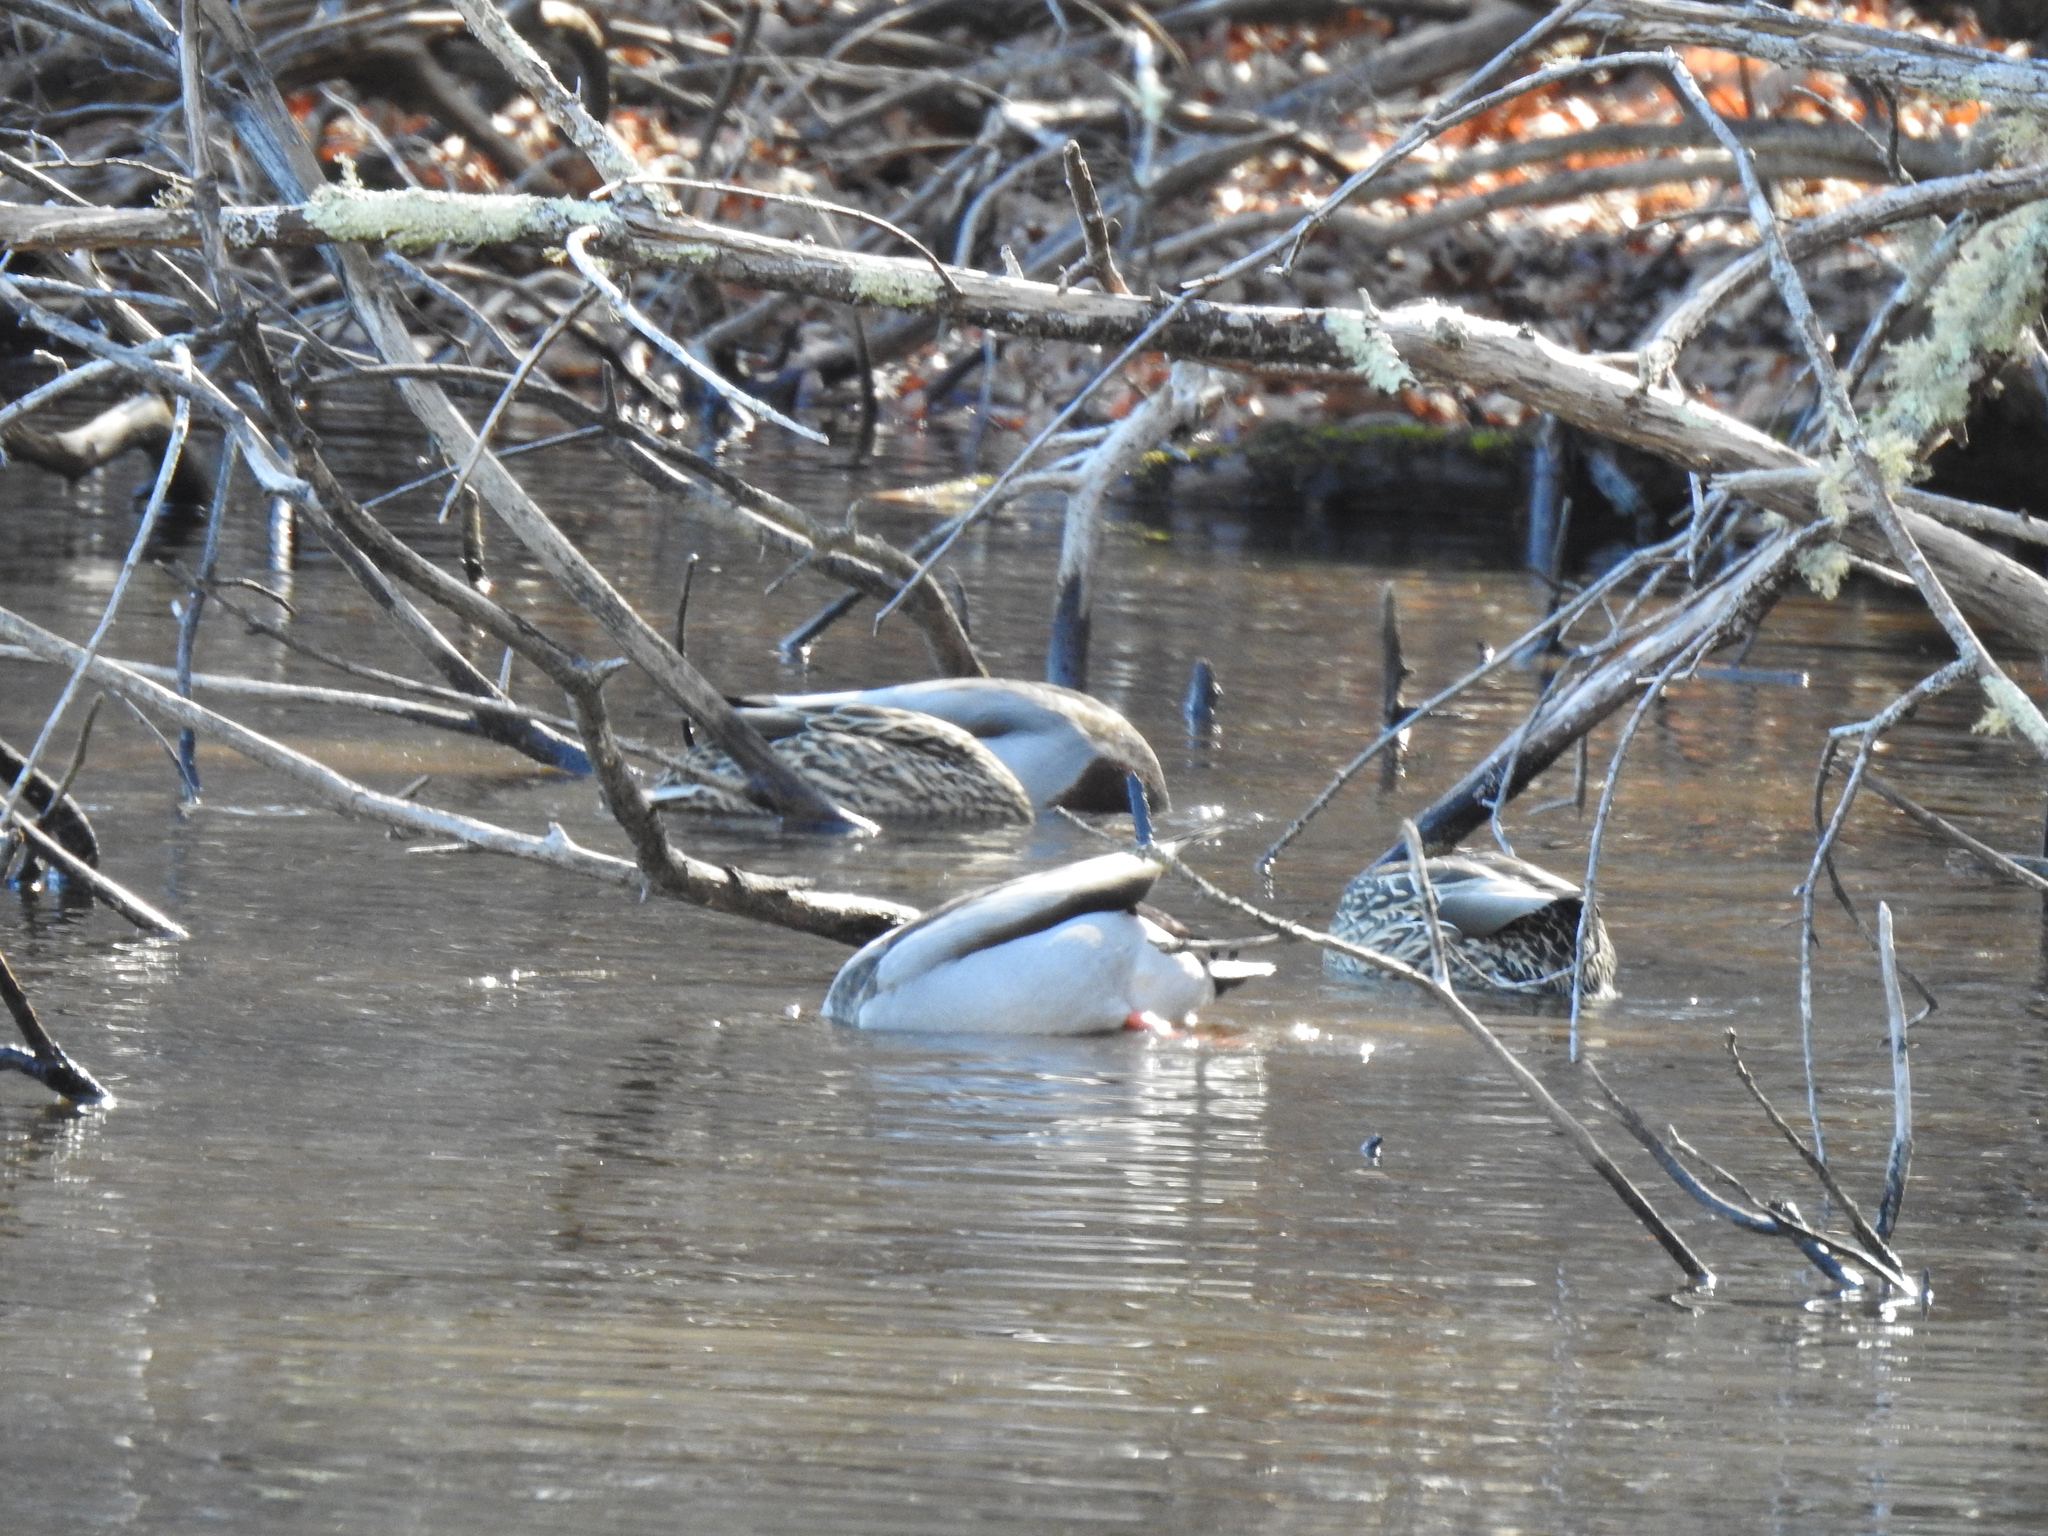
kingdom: Animalia
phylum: Chordata
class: Aves
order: Anseriformes
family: Anatidae
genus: Anas
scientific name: Anas platyrhynchos
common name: Mallard
